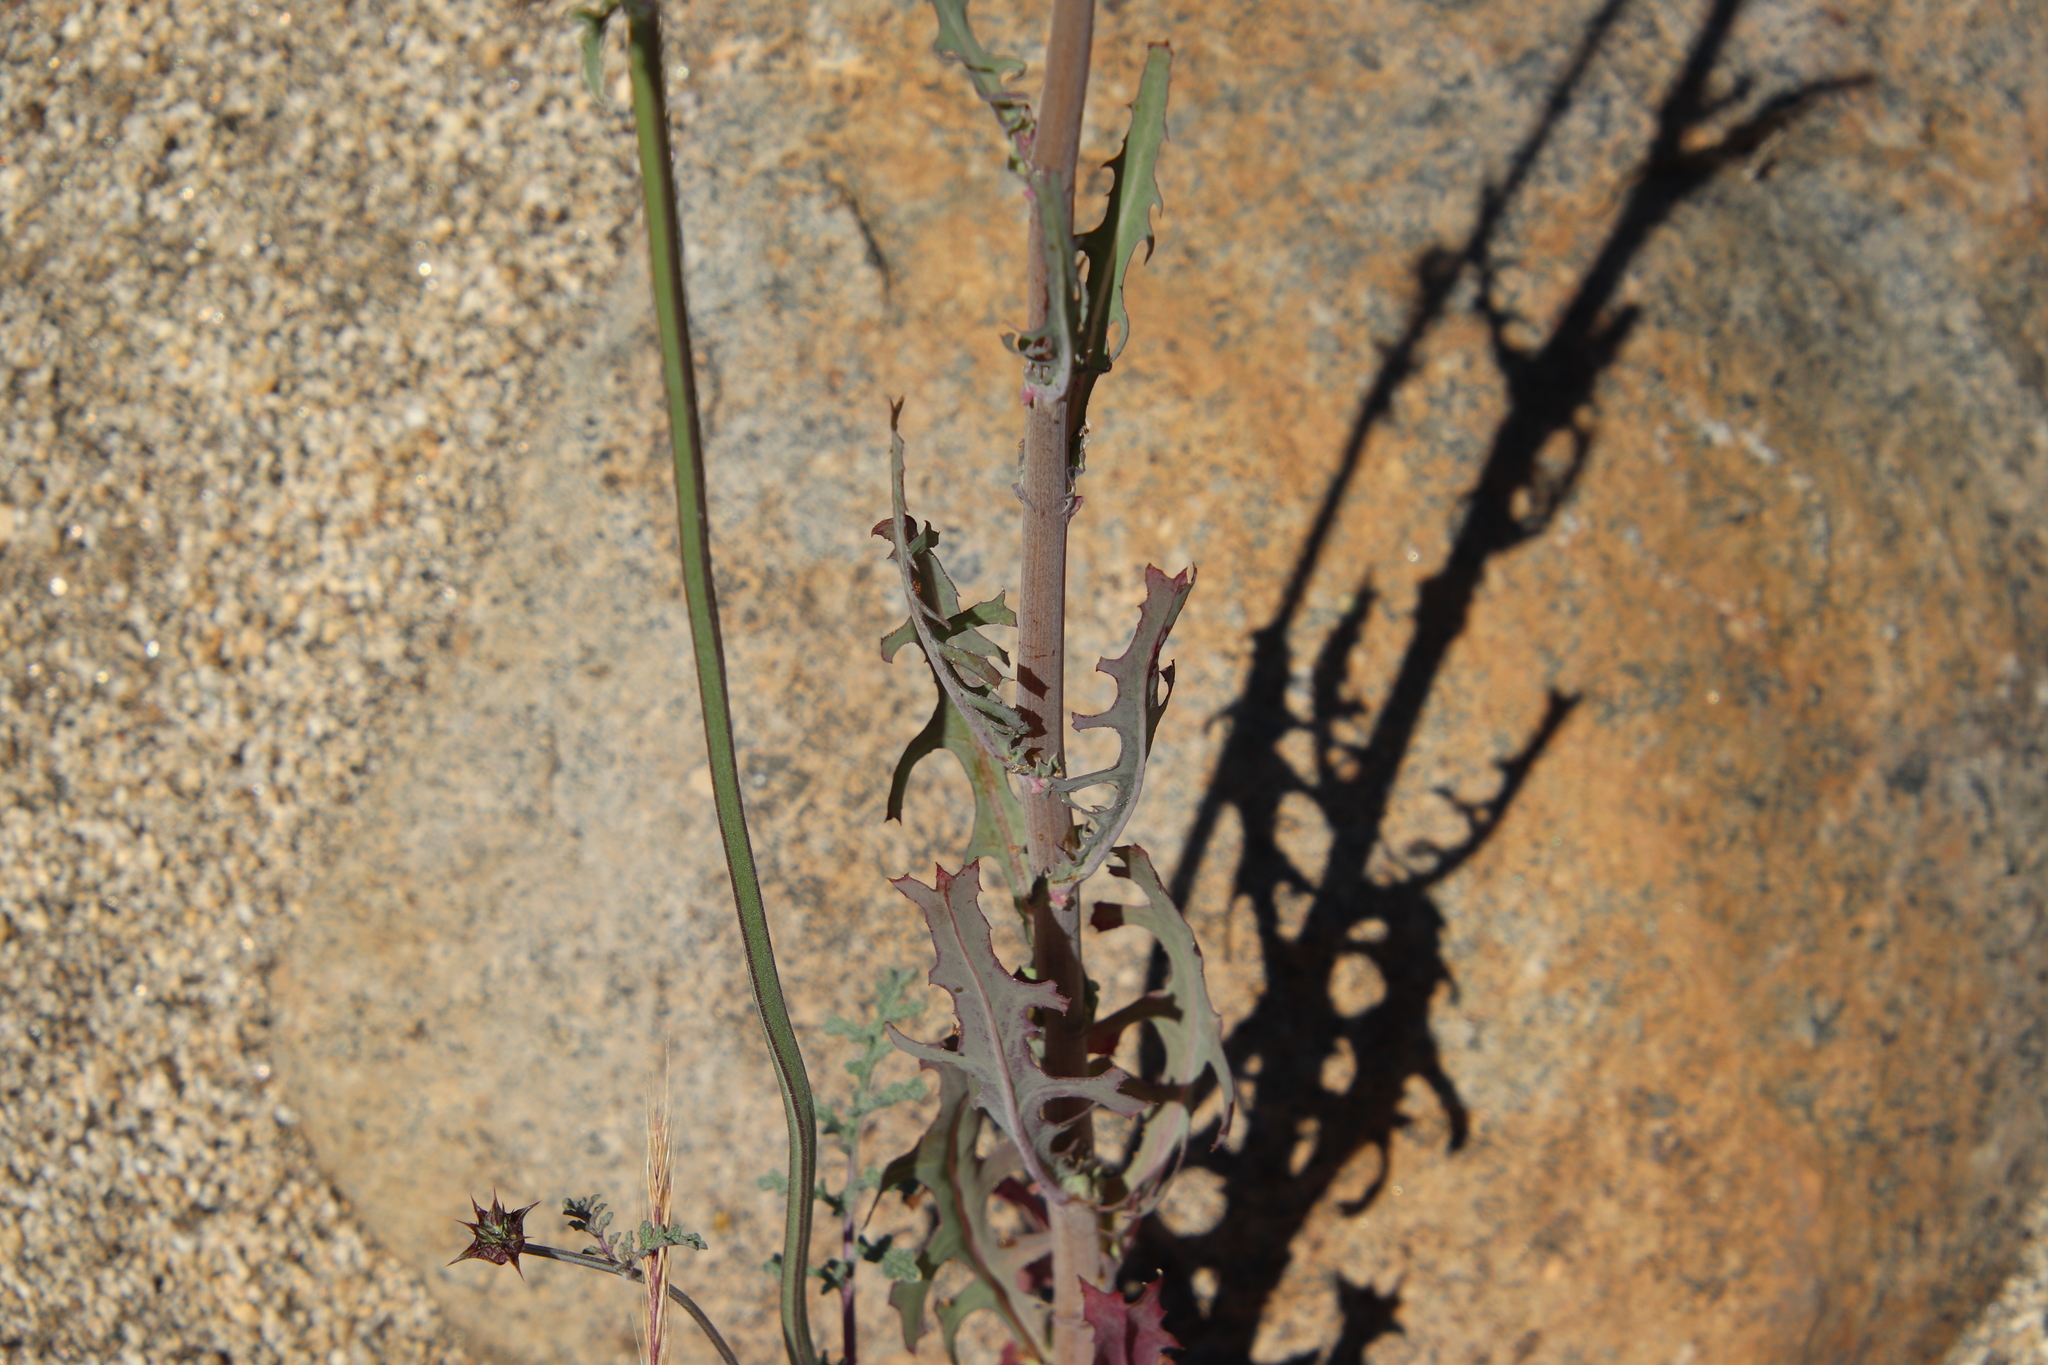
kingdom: Plantae
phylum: Tracheophyta
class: Magnoliopsida
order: Asterales
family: Asteraceae
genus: Rafinesquia
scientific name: Rafinesquia californica
